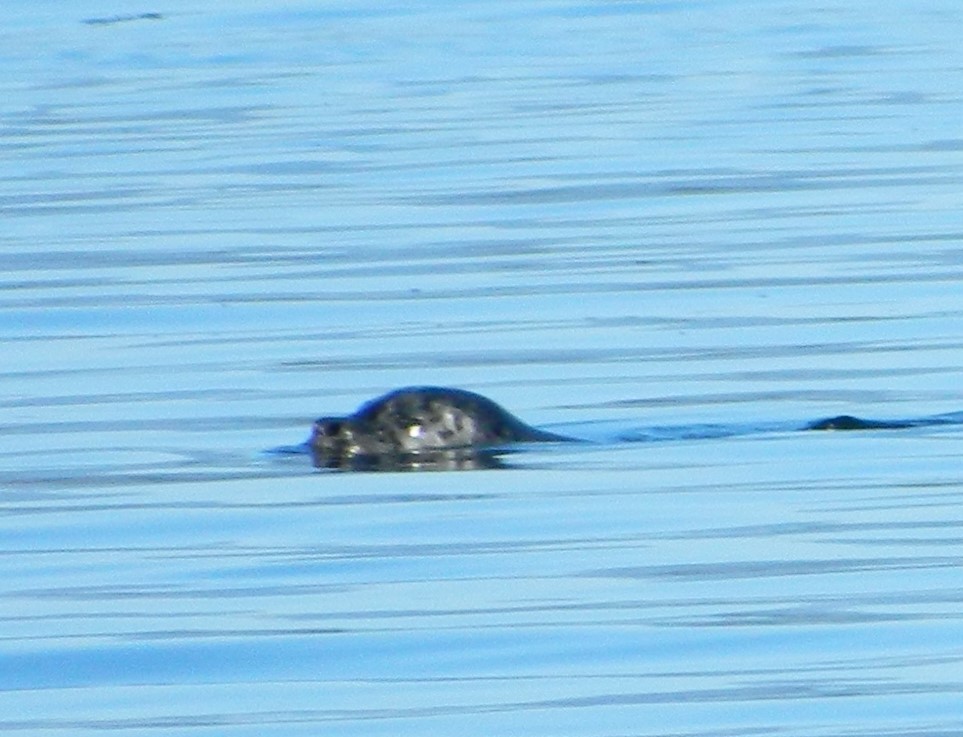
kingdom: Animalia
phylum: Chordata
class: Mammalia
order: Carnivora
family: Phocidae
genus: Phoca
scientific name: Phoca vitulina
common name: Harbor seal
